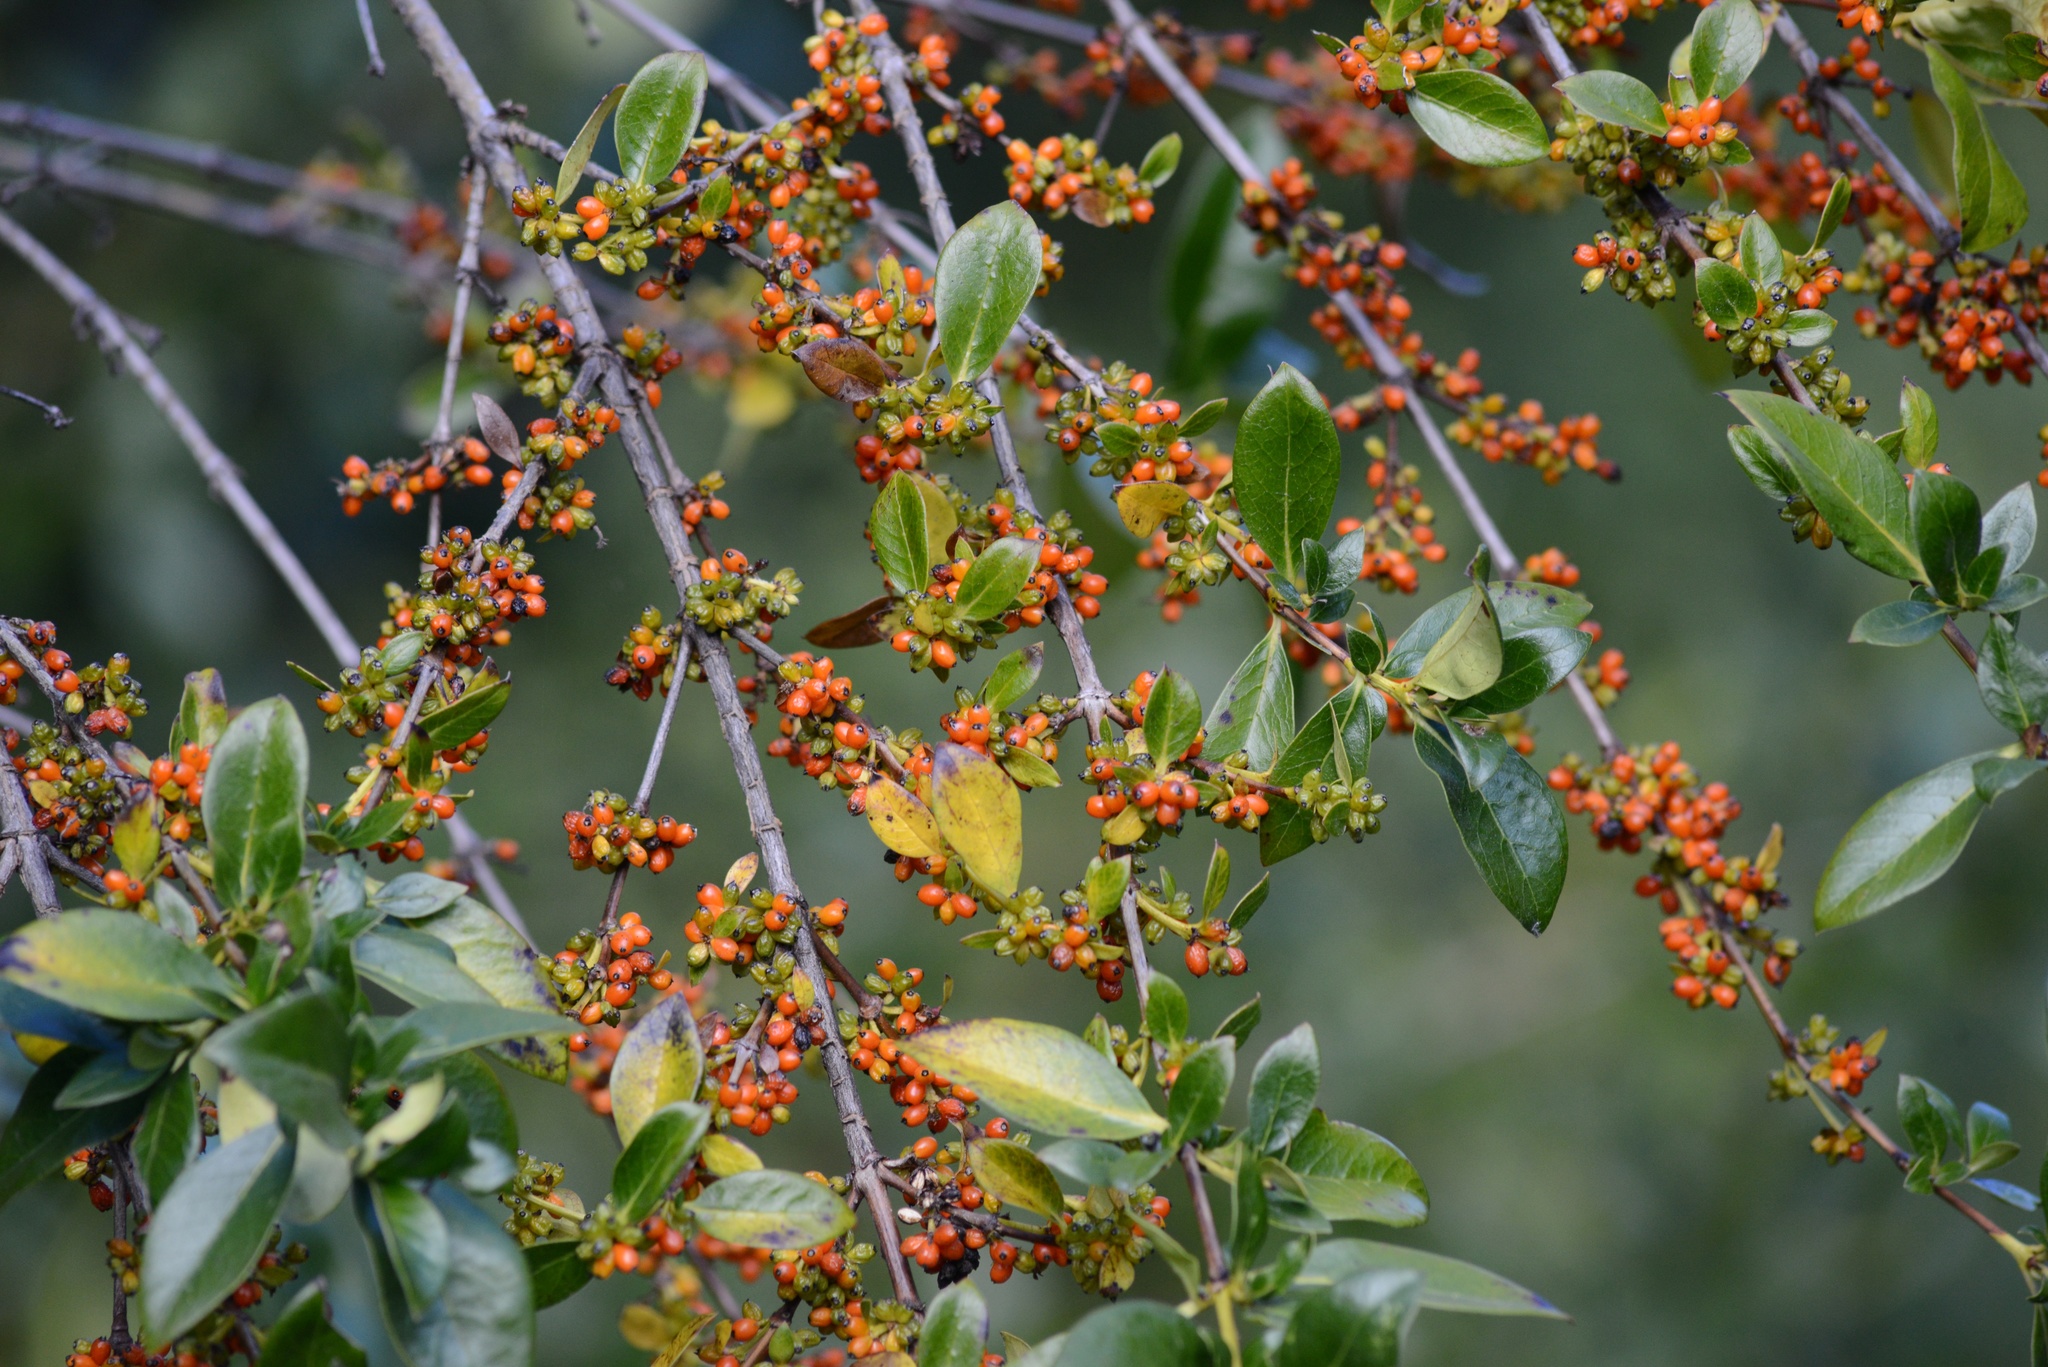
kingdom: Plantae
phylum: Tracheophyta
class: Magnoliopsida
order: Gentianales
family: Rubiaceae
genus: Coprosma
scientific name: Coprosma robusta
